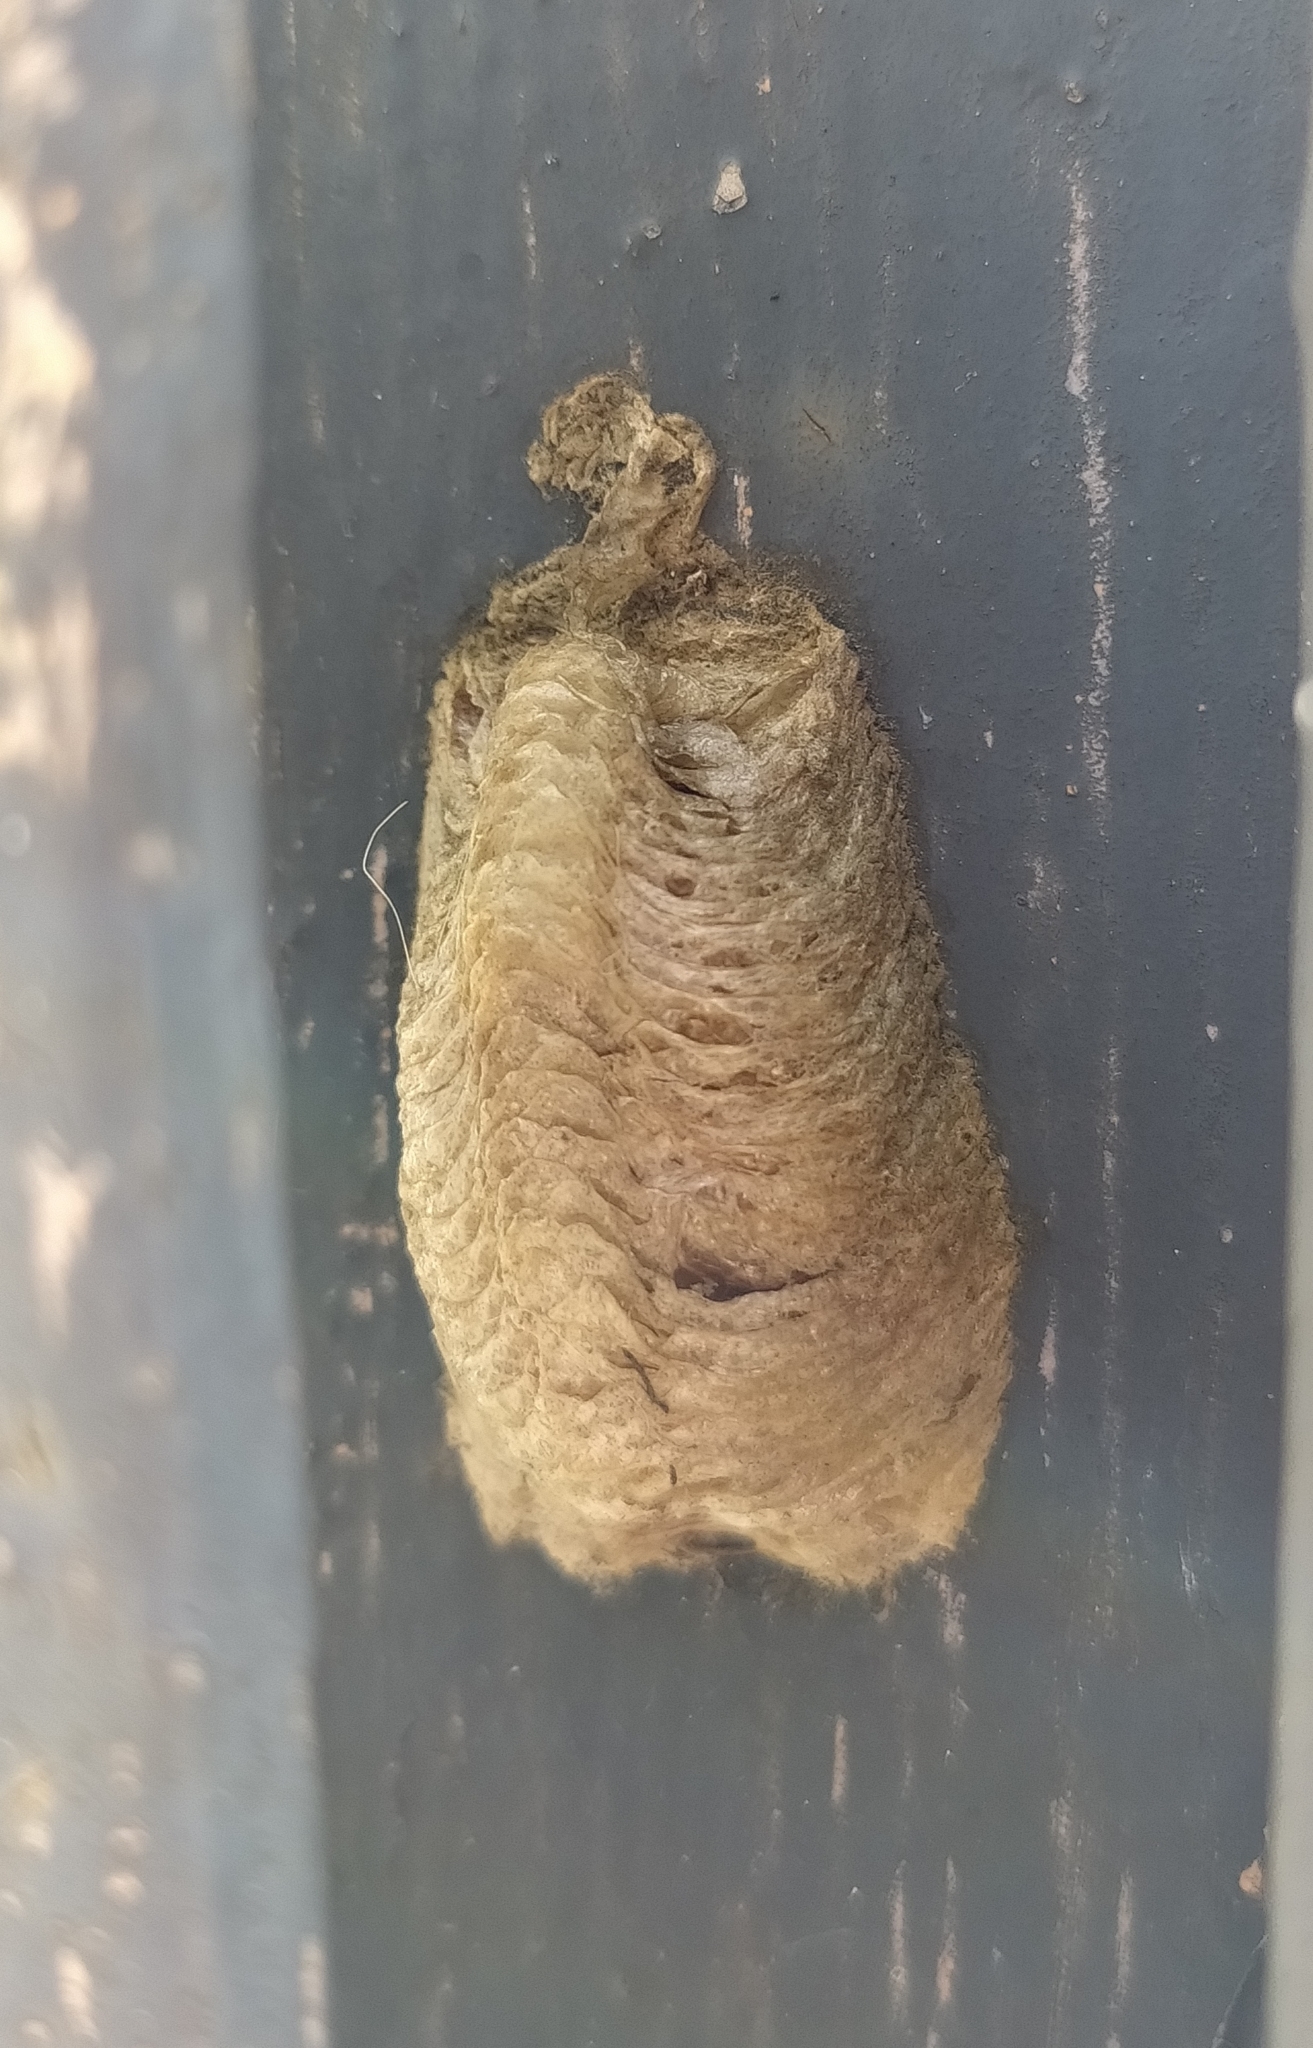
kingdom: Animalia
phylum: Arthropoda
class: Insecta
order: Mantodea
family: Mantidae
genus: Mantis
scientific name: Mantis religiosa
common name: Praying mantis
